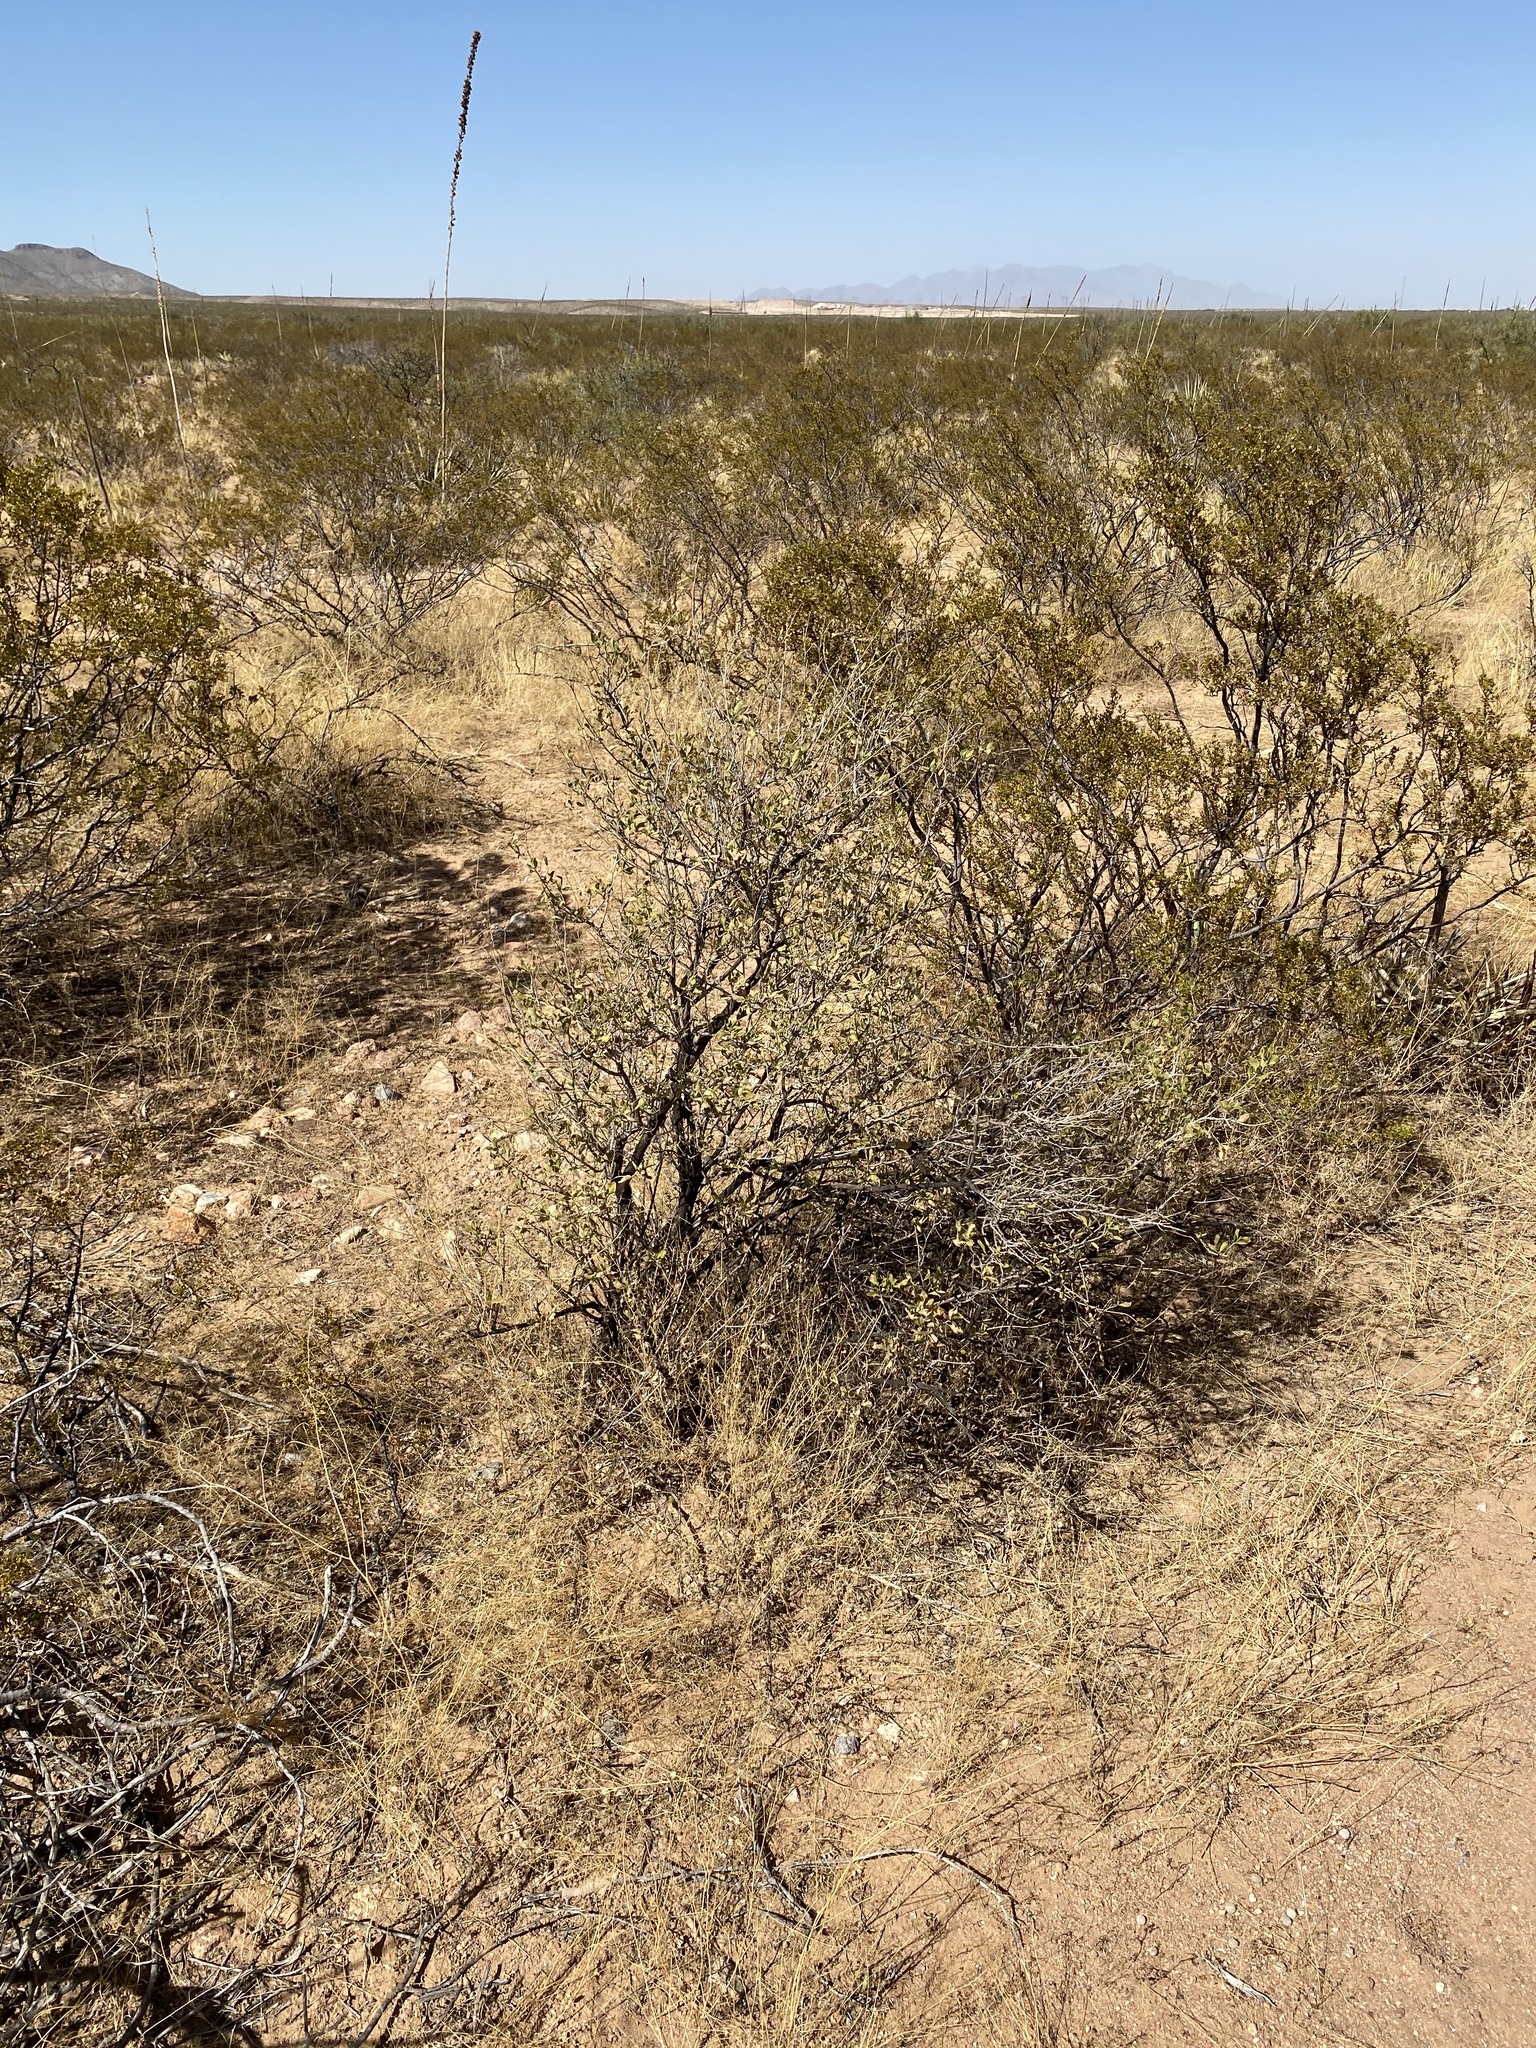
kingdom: Plantae
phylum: Tracheophyta
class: Magnoliopsida
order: Asterales
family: Asteraceae
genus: Flourensia
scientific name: Flourensia cernua
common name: Varnishbush
